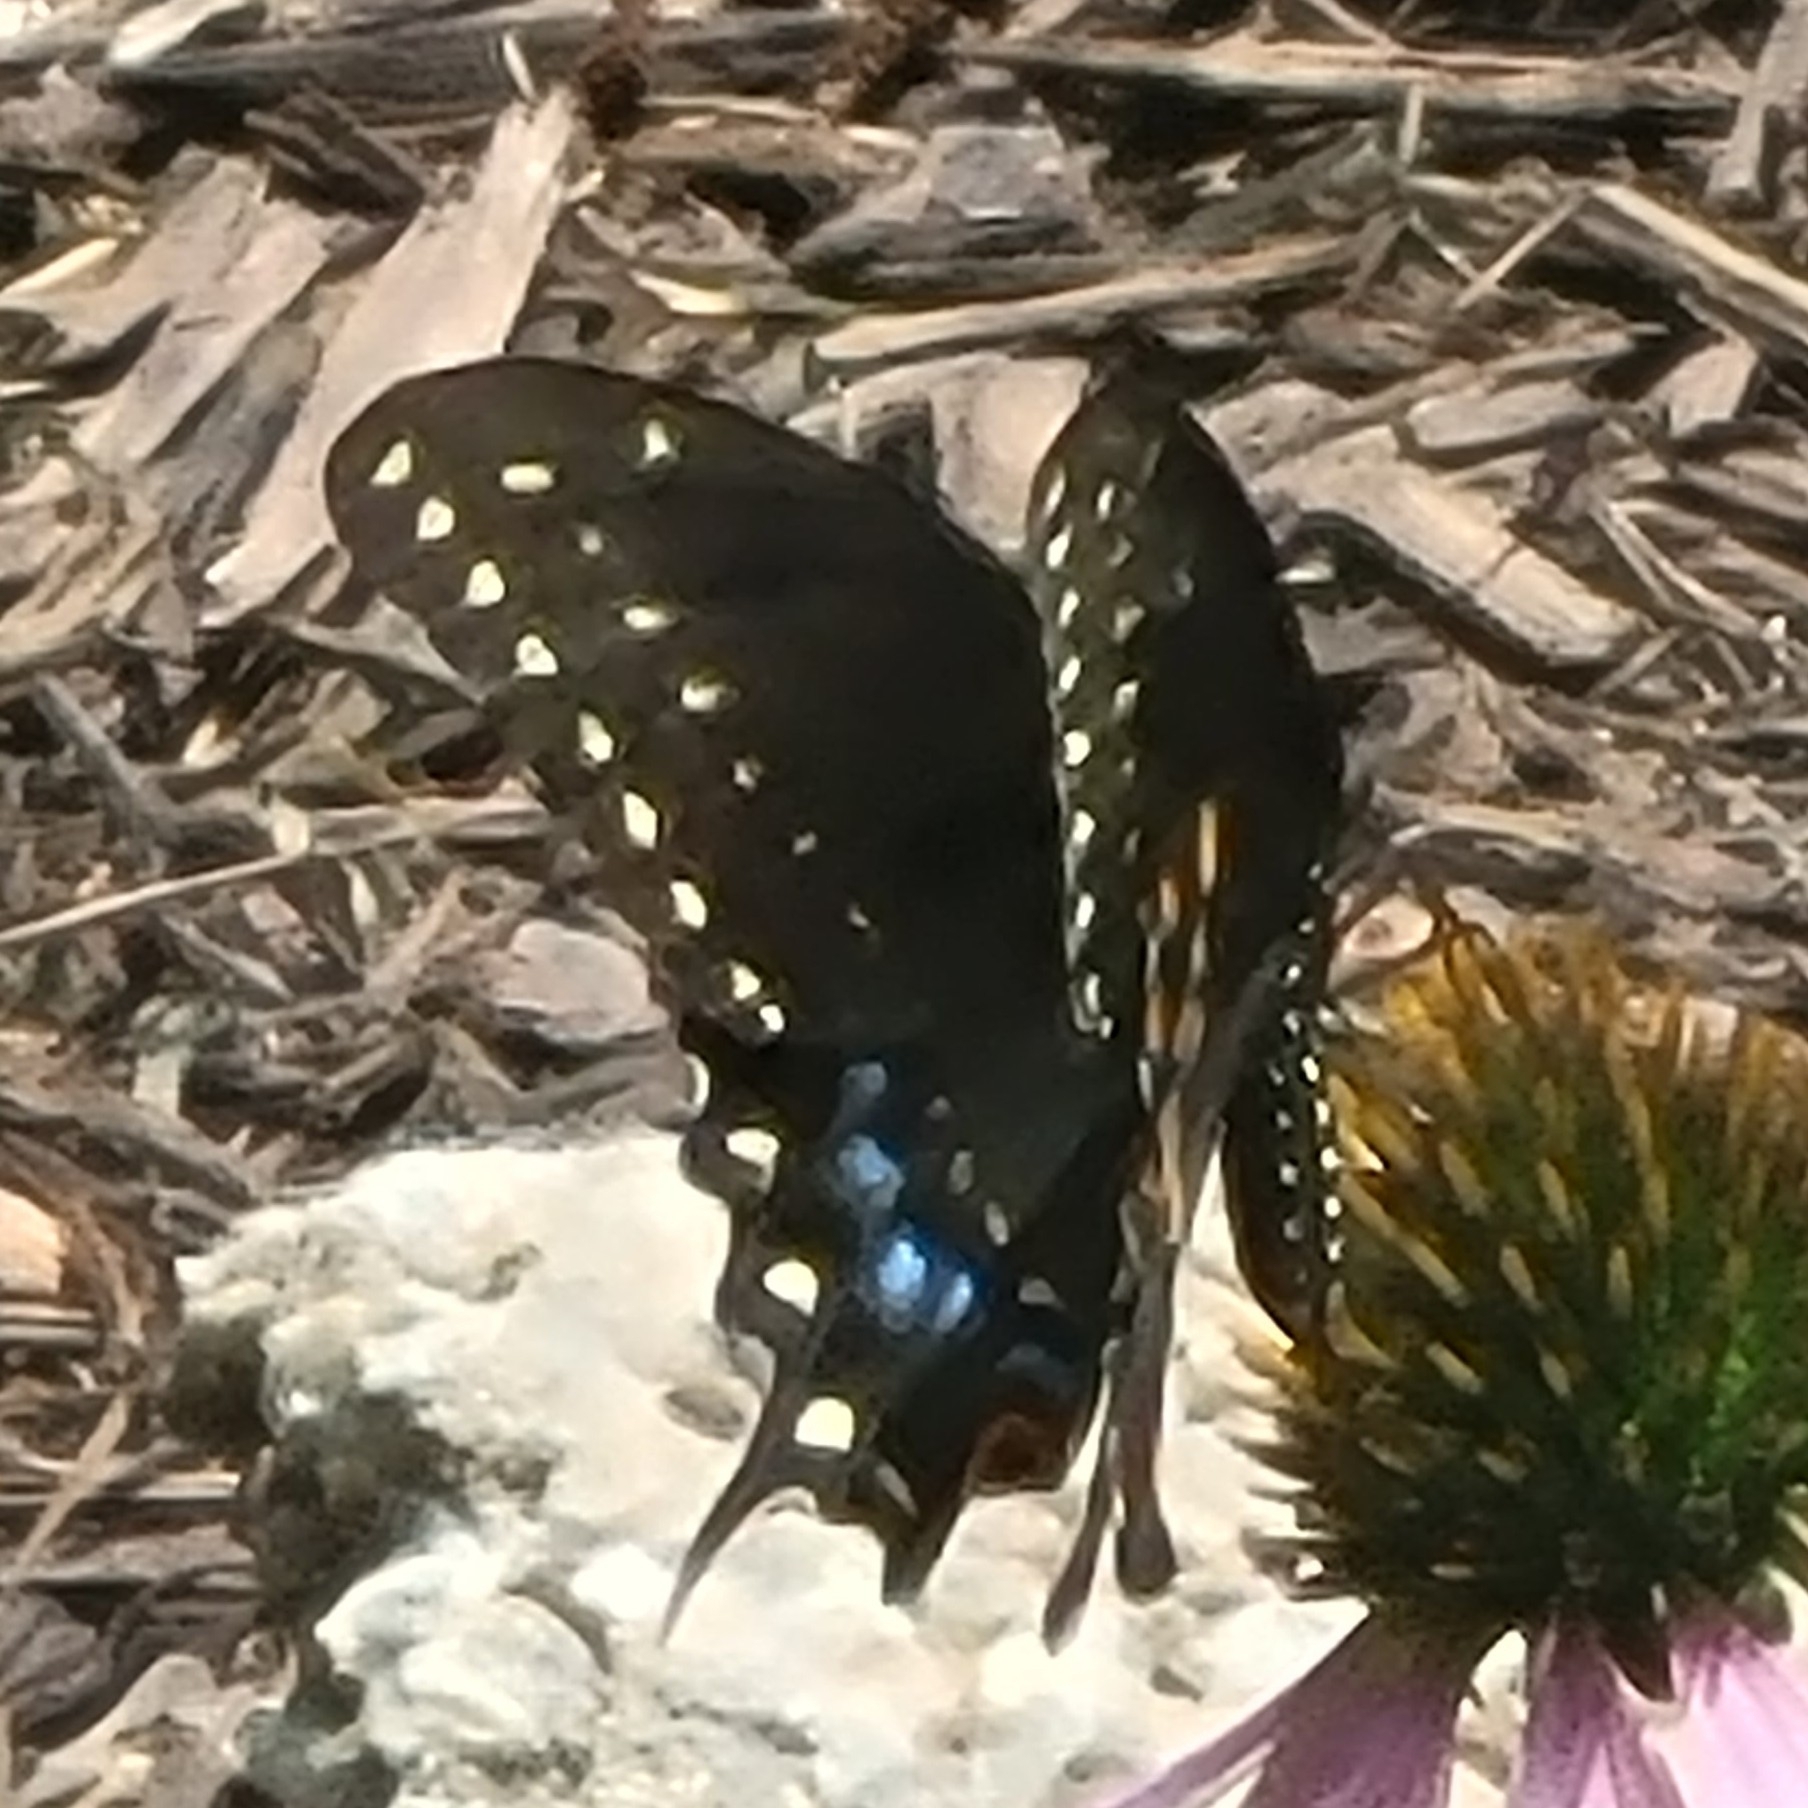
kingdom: Animalia
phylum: Arthropoda
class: Insecta
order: Lepidoptera
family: Papilionidae
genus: Papilio
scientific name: Papilio polyxenes
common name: Black swallowtail
